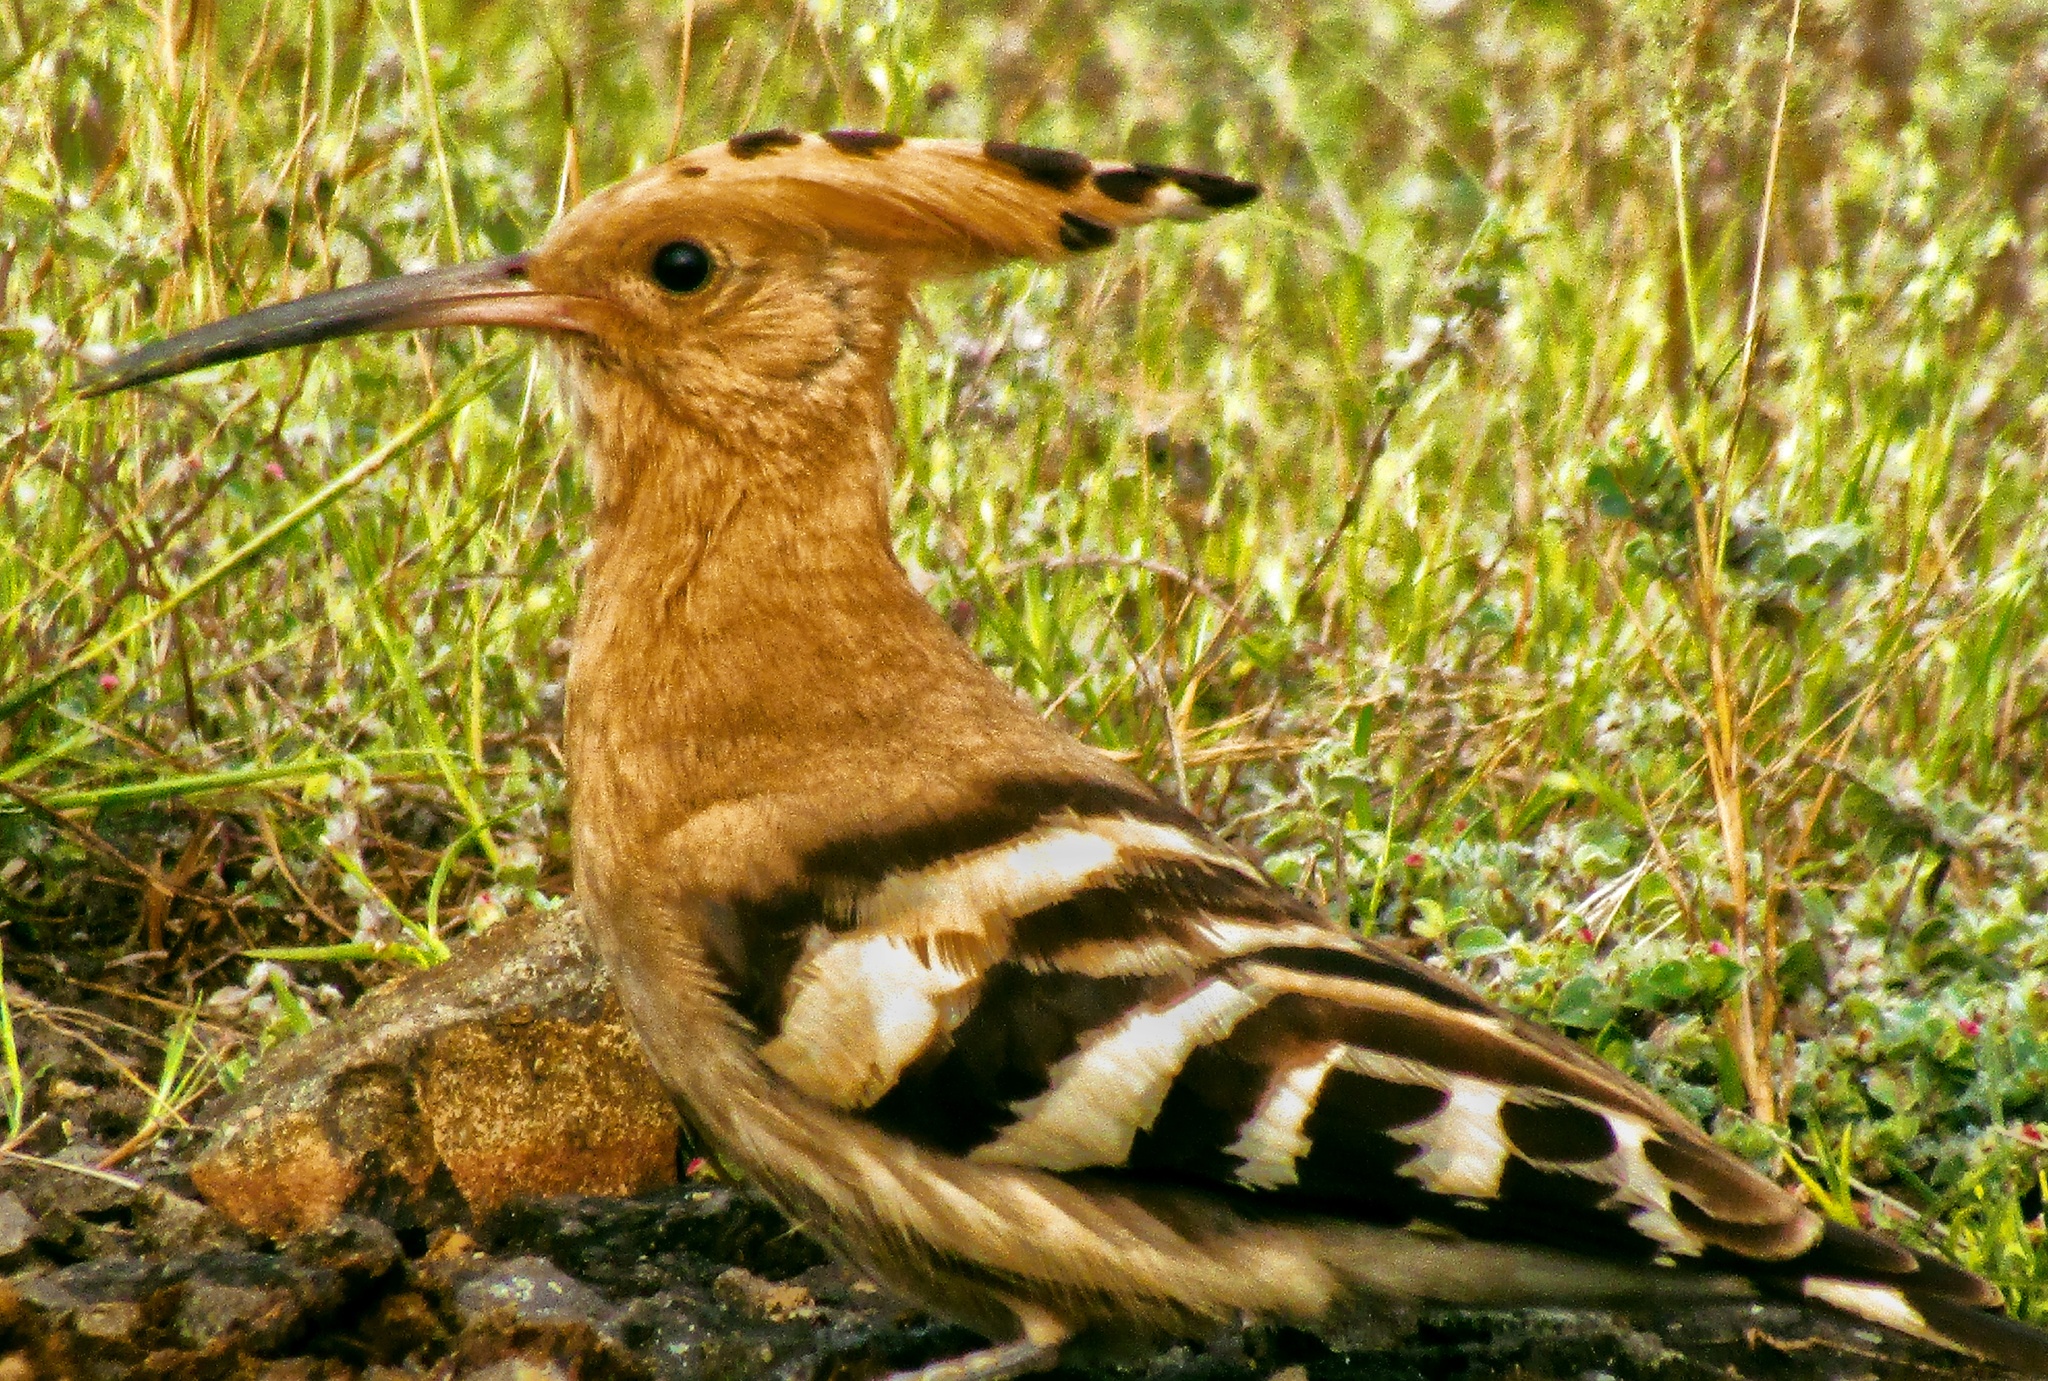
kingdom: Animalia
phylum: Chordata
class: Aves
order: Bucerotiformes
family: Upupidae
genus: Upupa
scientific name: Upupa epops
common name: Eurasian hoopoe
